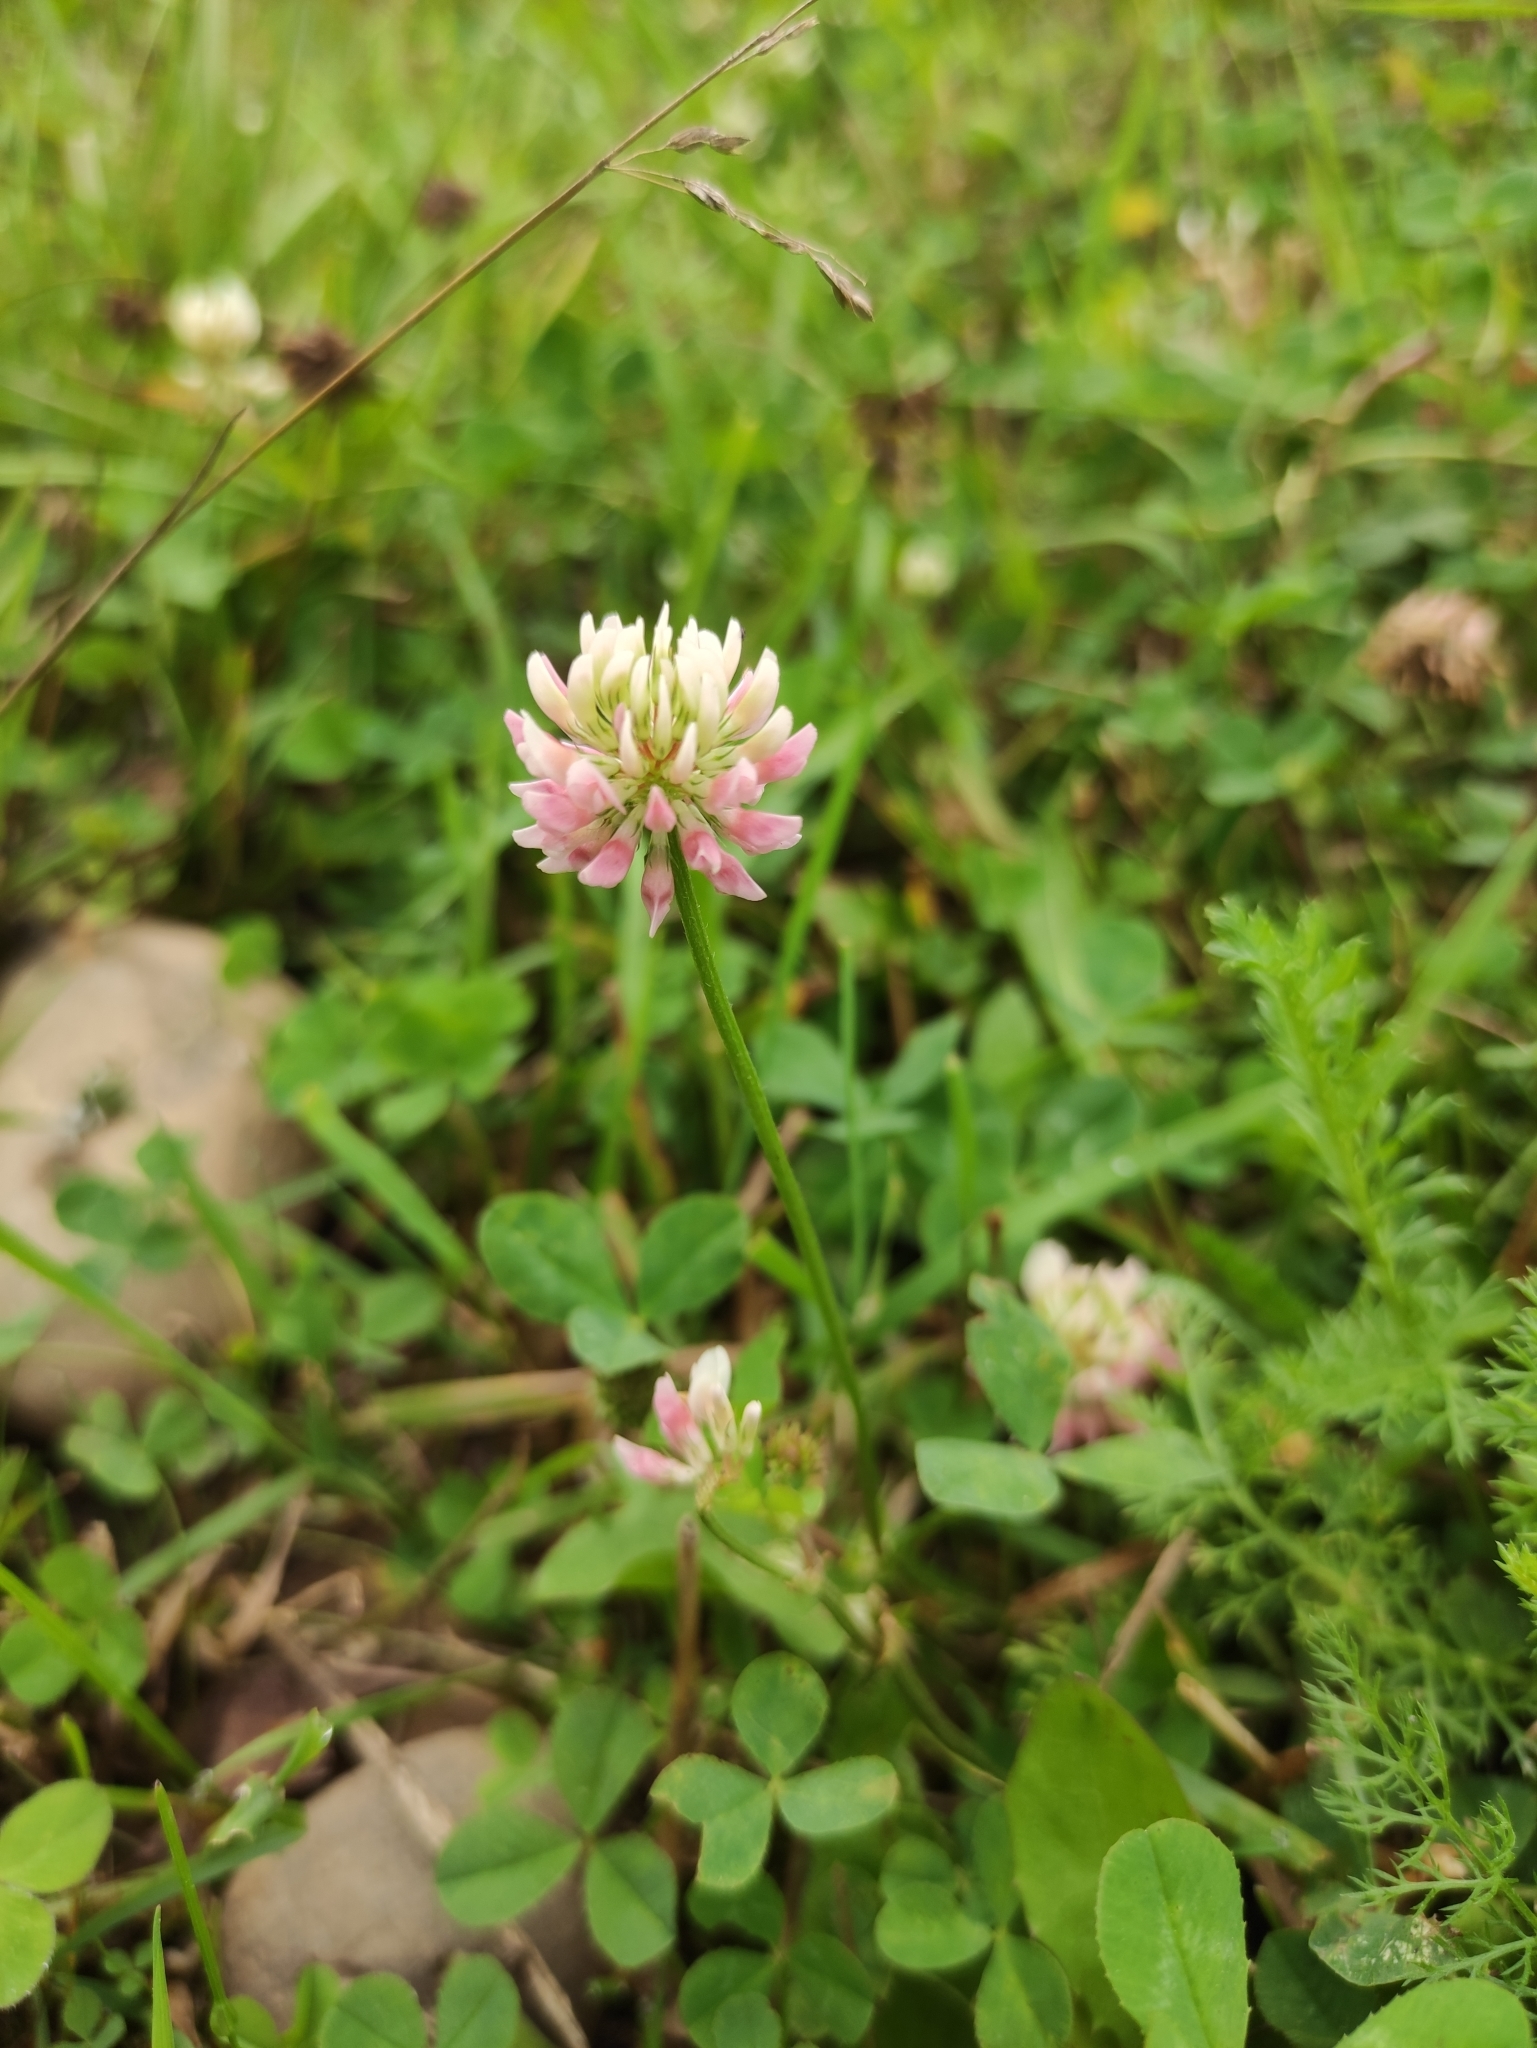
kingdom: Plantae
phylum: Tracheophyta
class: Magnoliopsida
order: Fabales
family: Fabaceae
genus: Trifolium
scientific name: Trifolium hybridum
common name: Alsike clover
